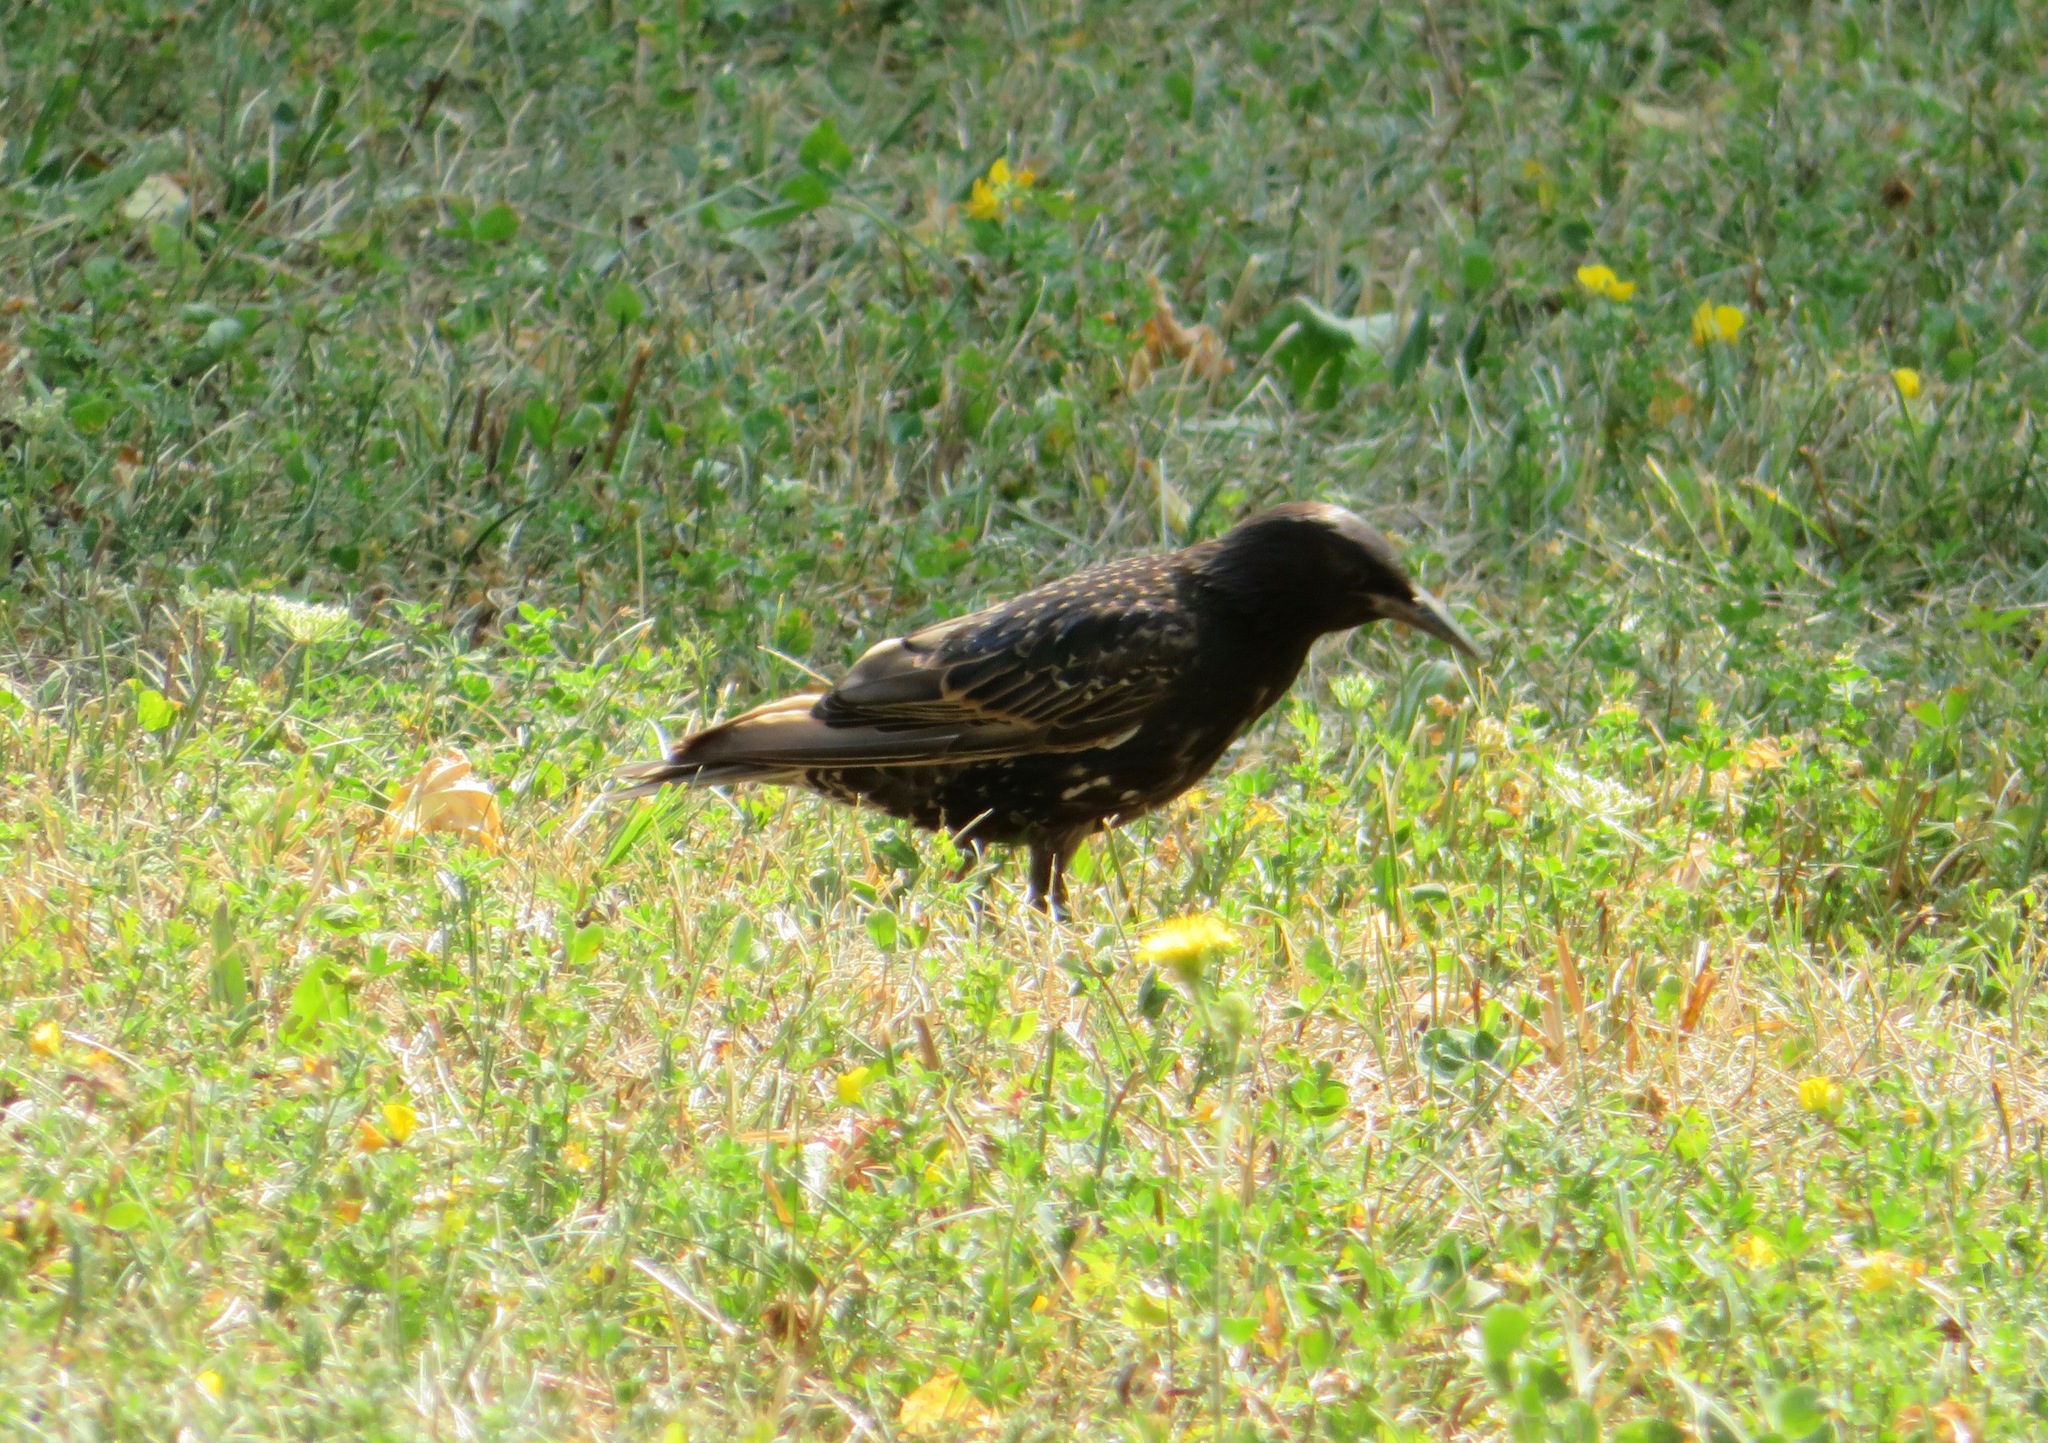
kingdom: Animalia
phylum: Chordata
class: Aves
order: Passeriformes
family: Sturnidae
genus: Sturnus
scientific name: Sturnus vulgaris
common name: Common starling
